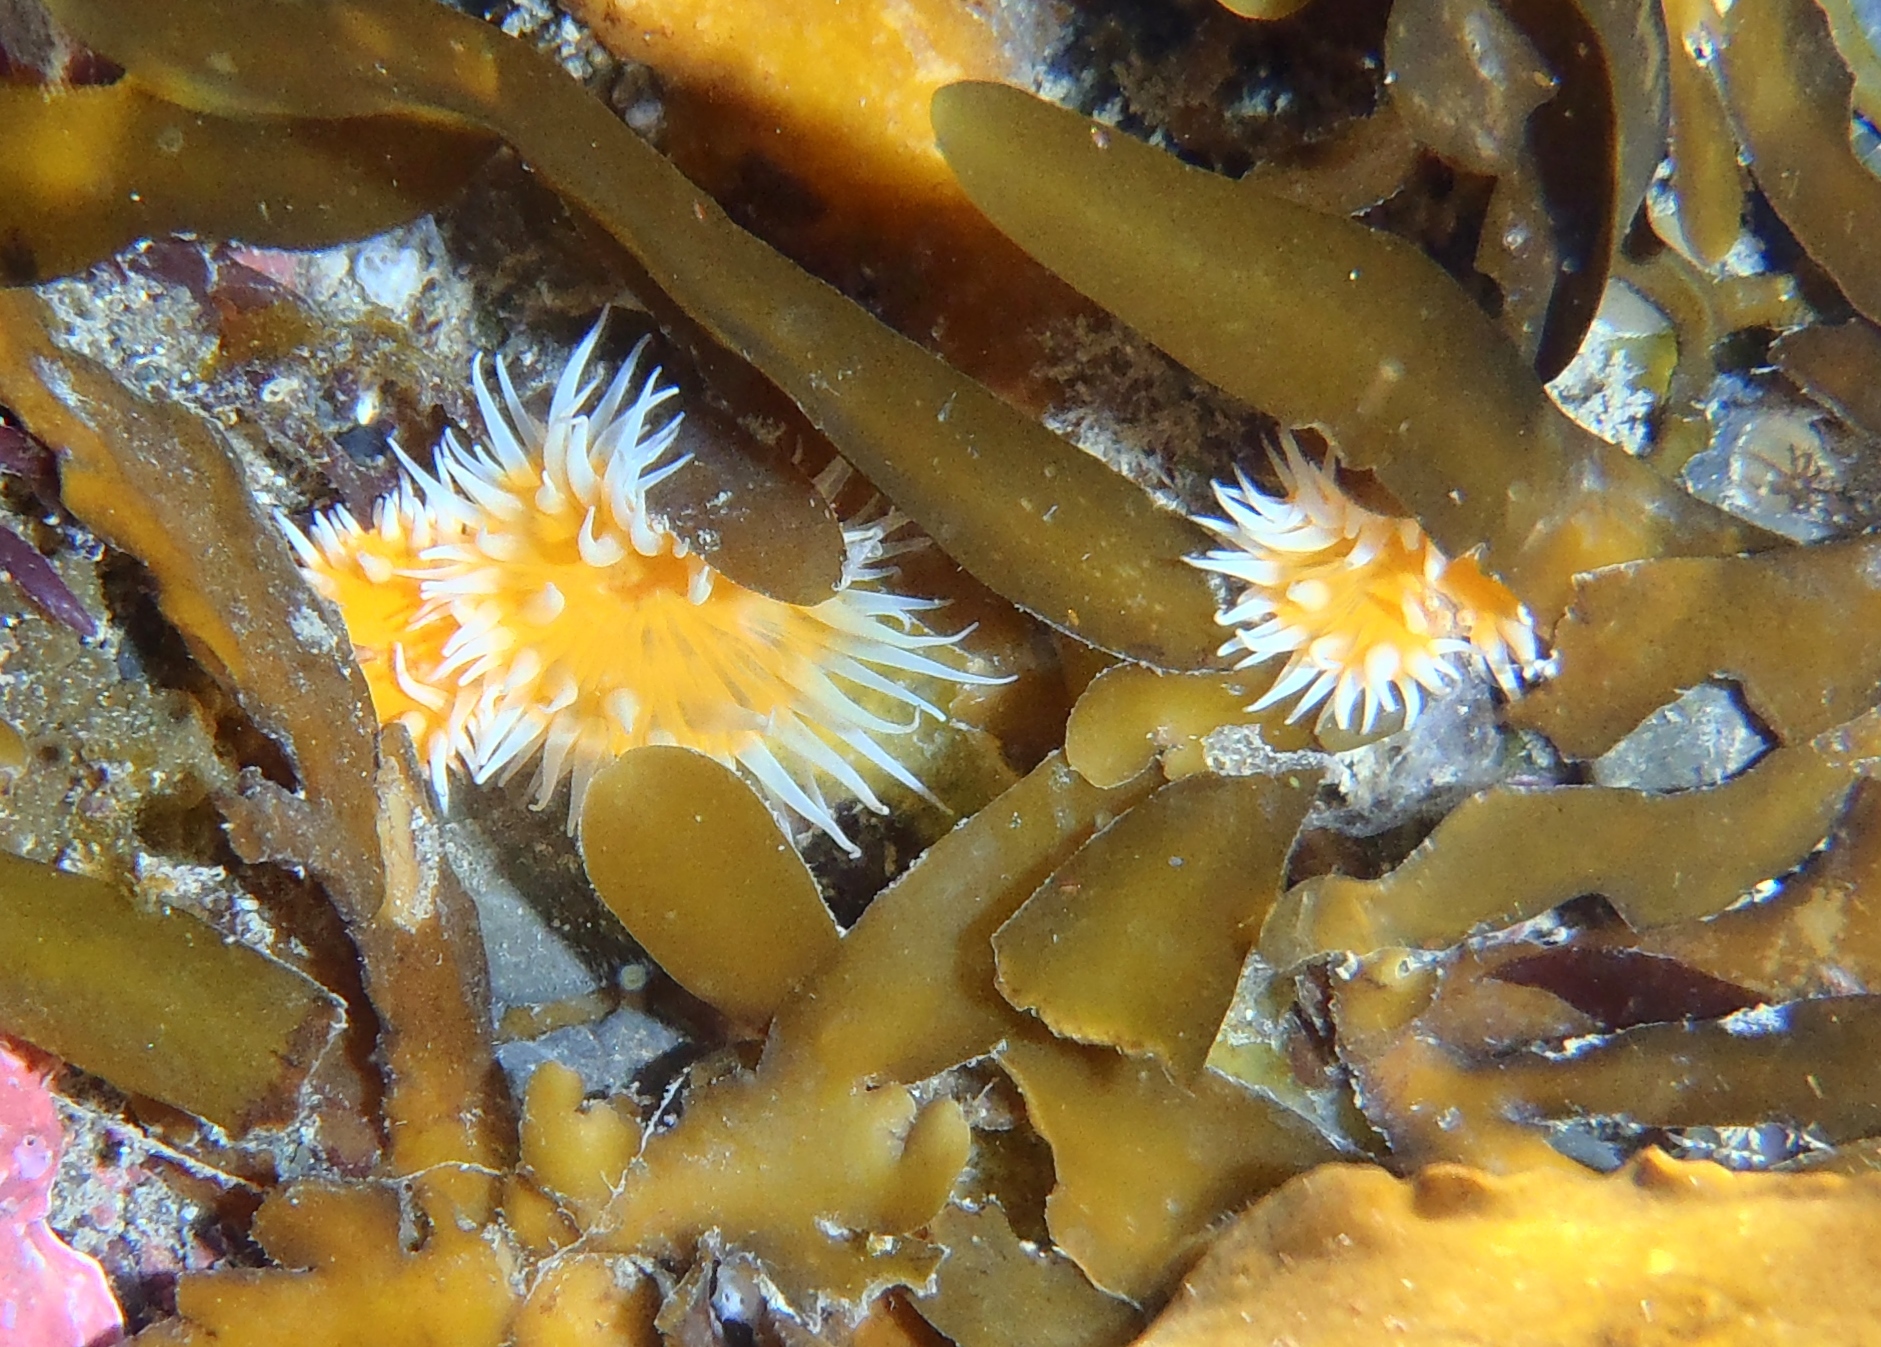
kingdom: Animalia
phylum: Cnidaria
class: Anthozoa
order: Actiniaria
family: Sagartiidae
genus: Anthothoe
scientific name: Anthothoe albocincta
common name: Orange striped anemone
